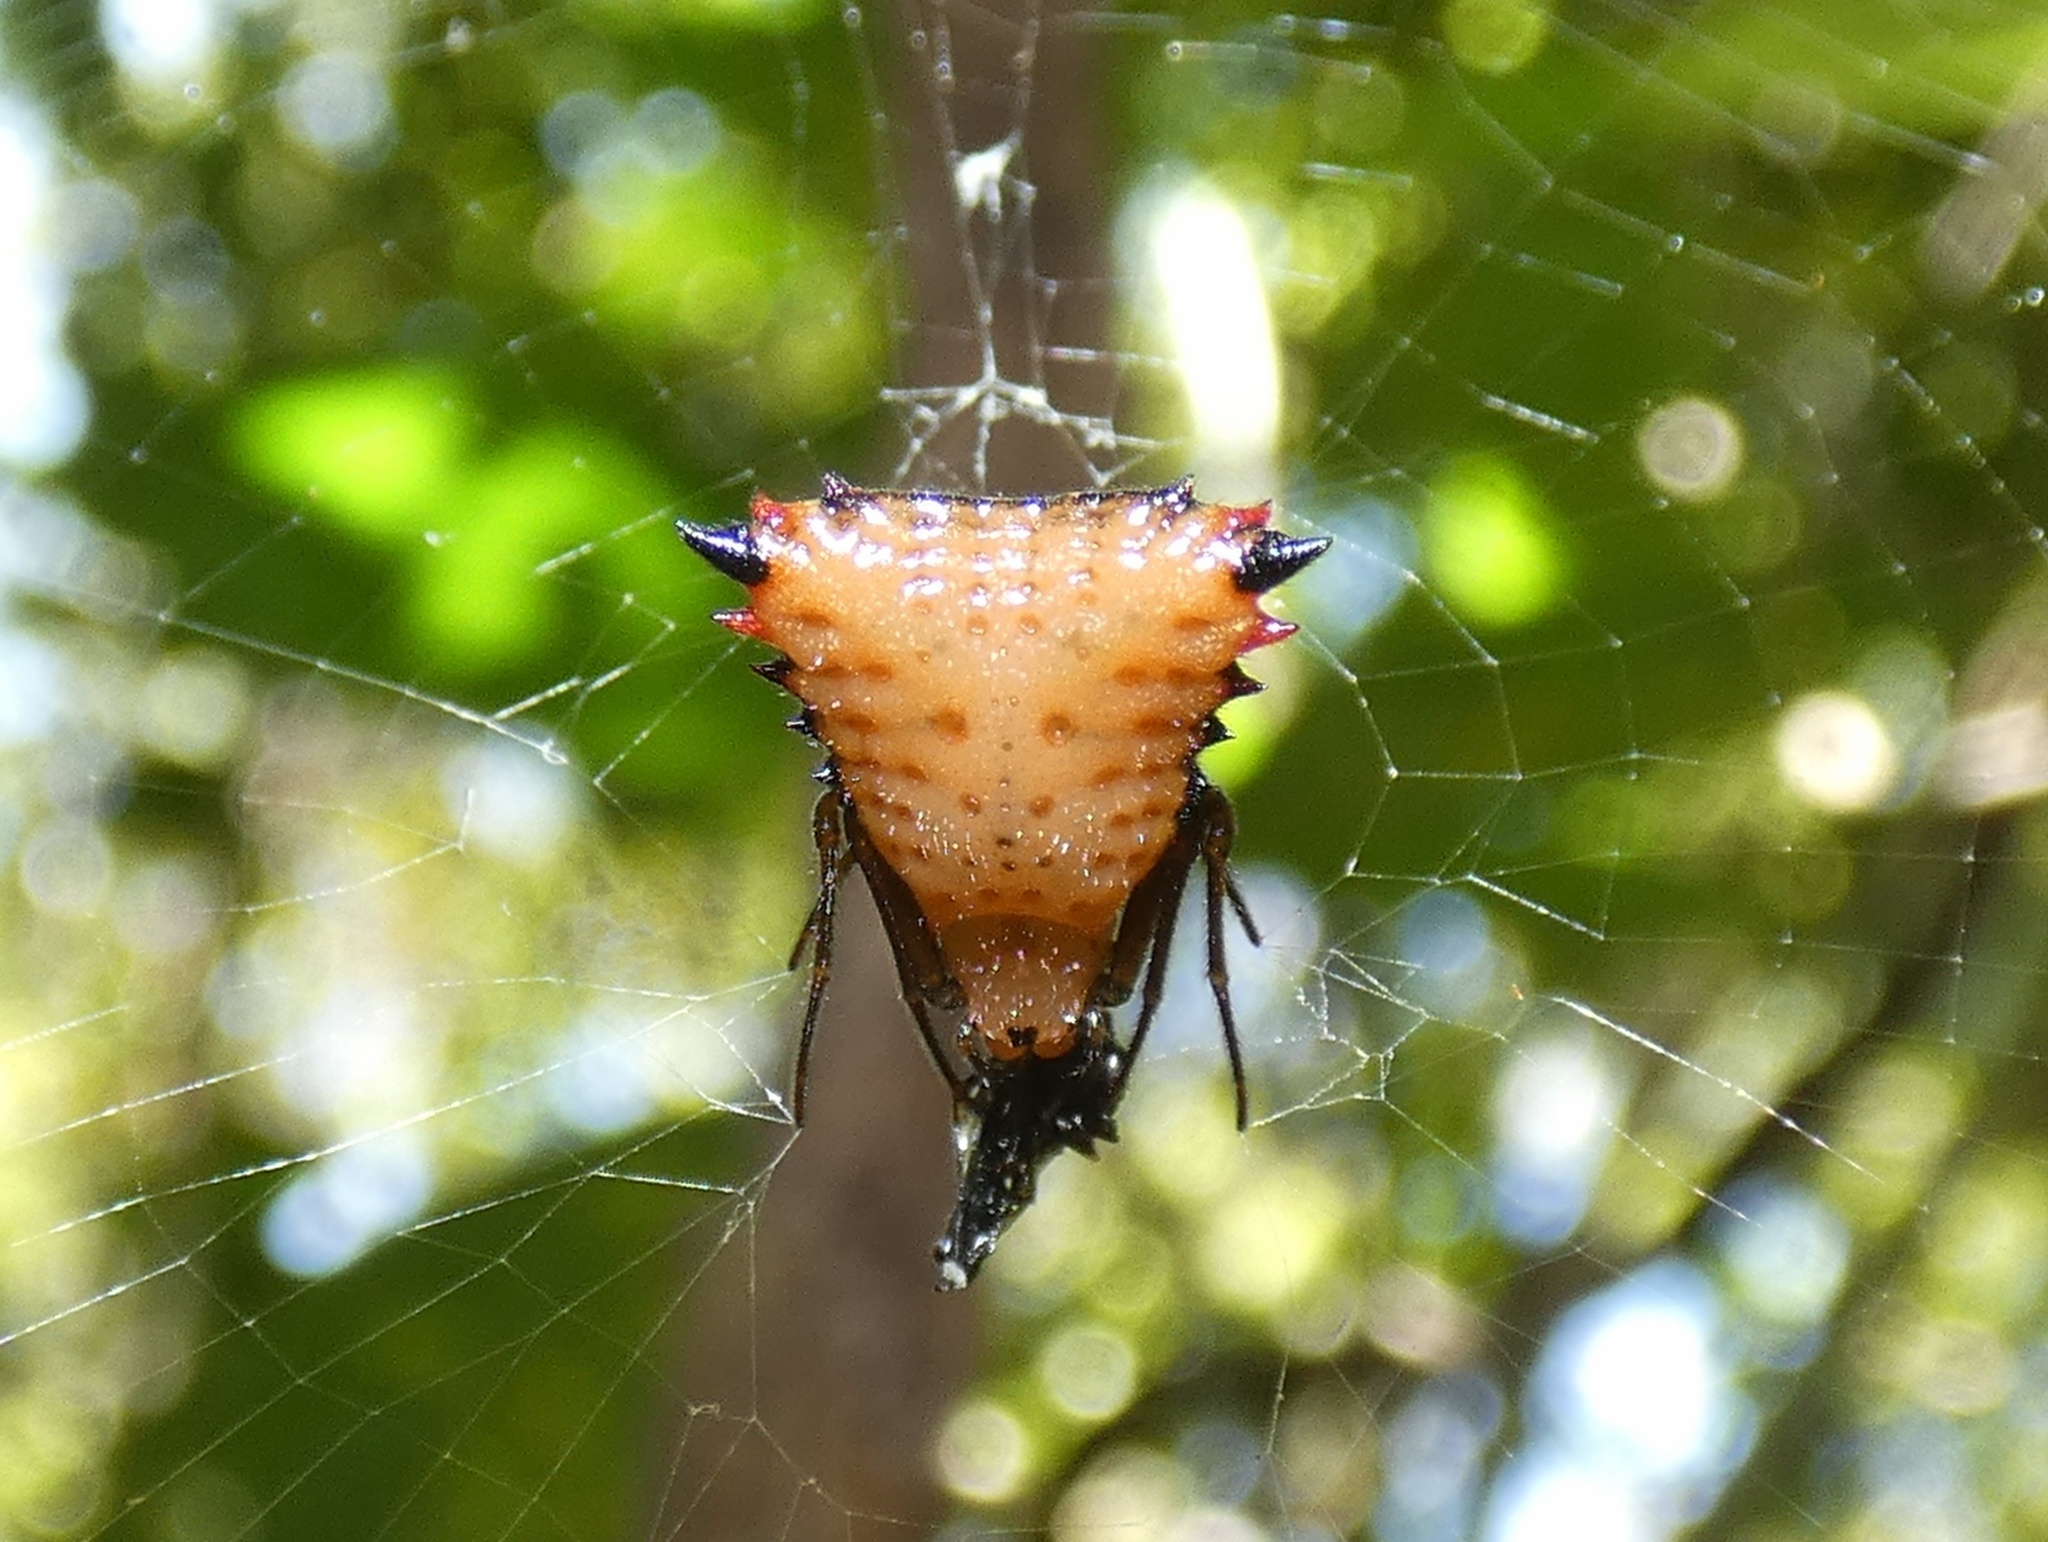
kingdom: Animalia
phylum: Arthropoda
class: Arachnida
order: Araneae
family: Araneidae
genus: Micrathena
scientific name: Micrathena excavata
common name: Orb weavers
